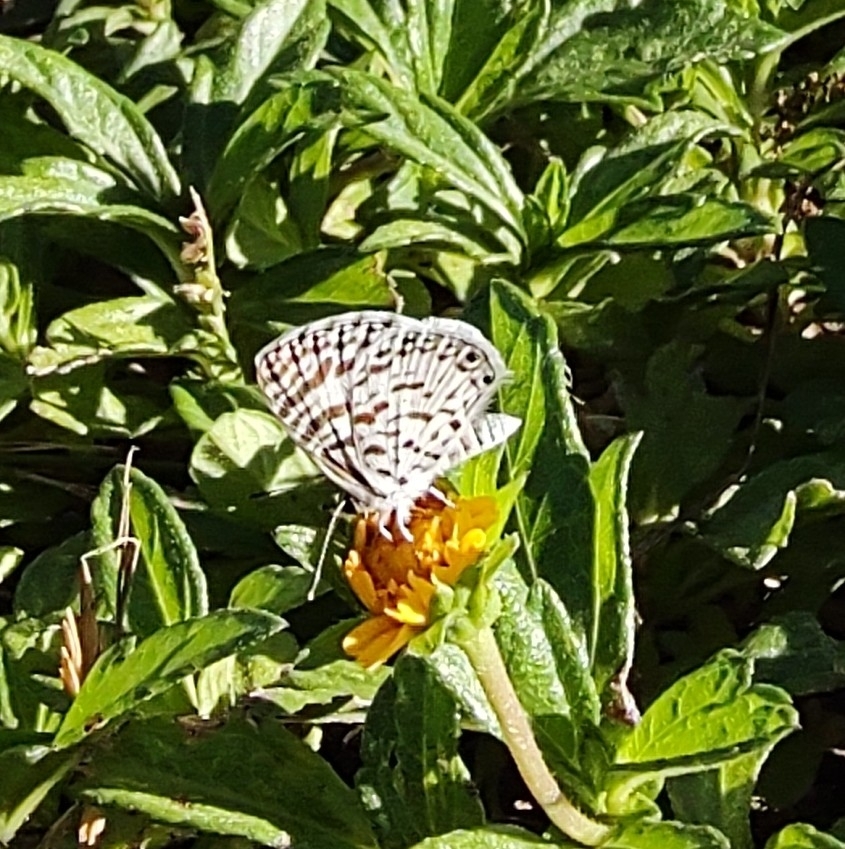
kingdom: Animalia
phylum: Arthropoda
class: Insecta
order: Lepidoptera
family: Lycaenidae
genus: Leptotes
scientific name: Leptotes cassius
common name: Cassius blue
